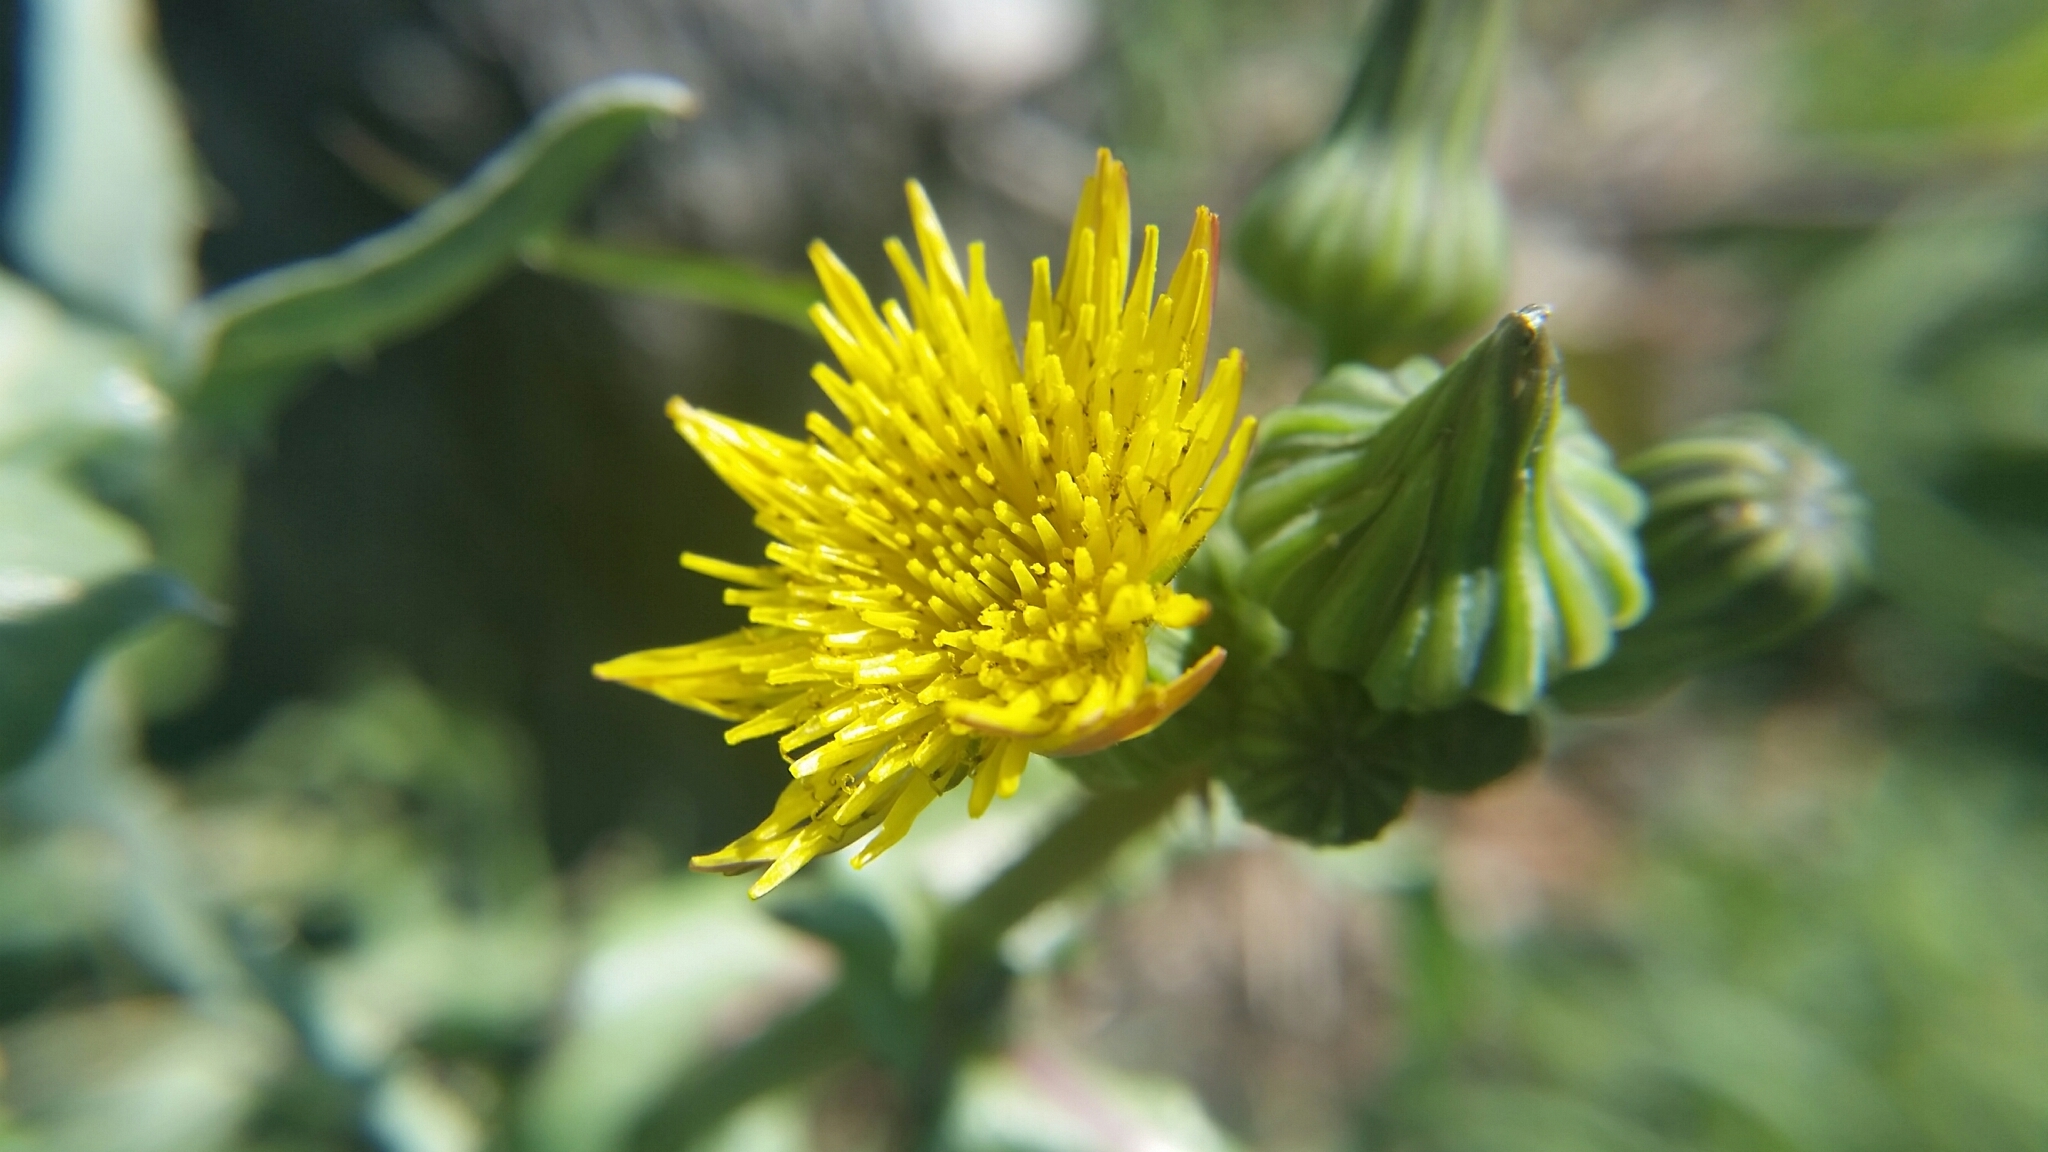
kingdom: Plantae
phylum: Tracheophyta
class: Magnoliopsida
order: Asterales
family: Asteraceae
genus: Sonchus
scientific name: Sonchus oleraceus
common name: Common sowthistle
